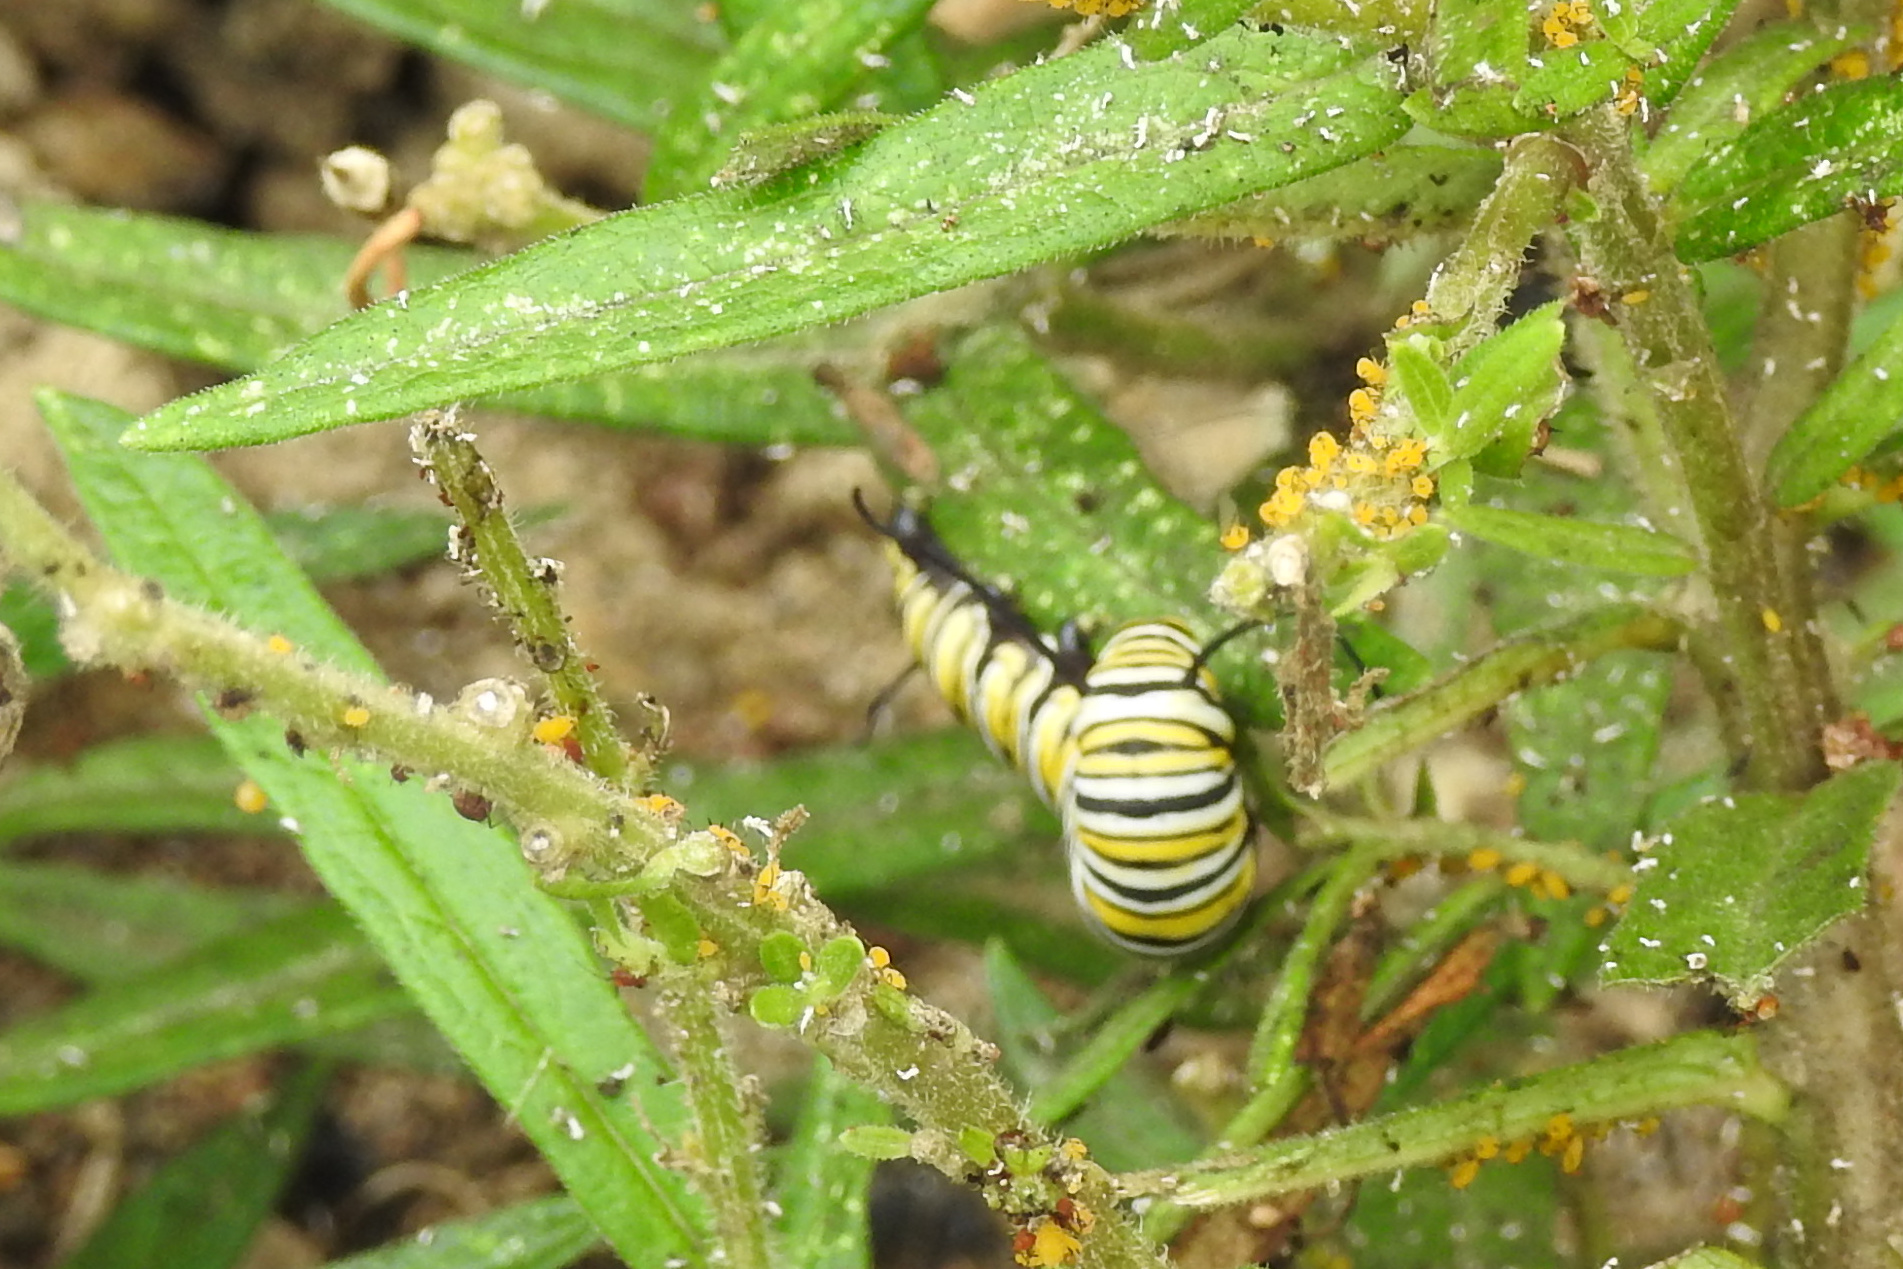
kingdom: Animalia
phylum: Arthropoda
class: Insecta
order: Lepidoptera
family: Nymphalidae
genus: Danaus
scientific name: Danaus plexippus
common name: Monarch
